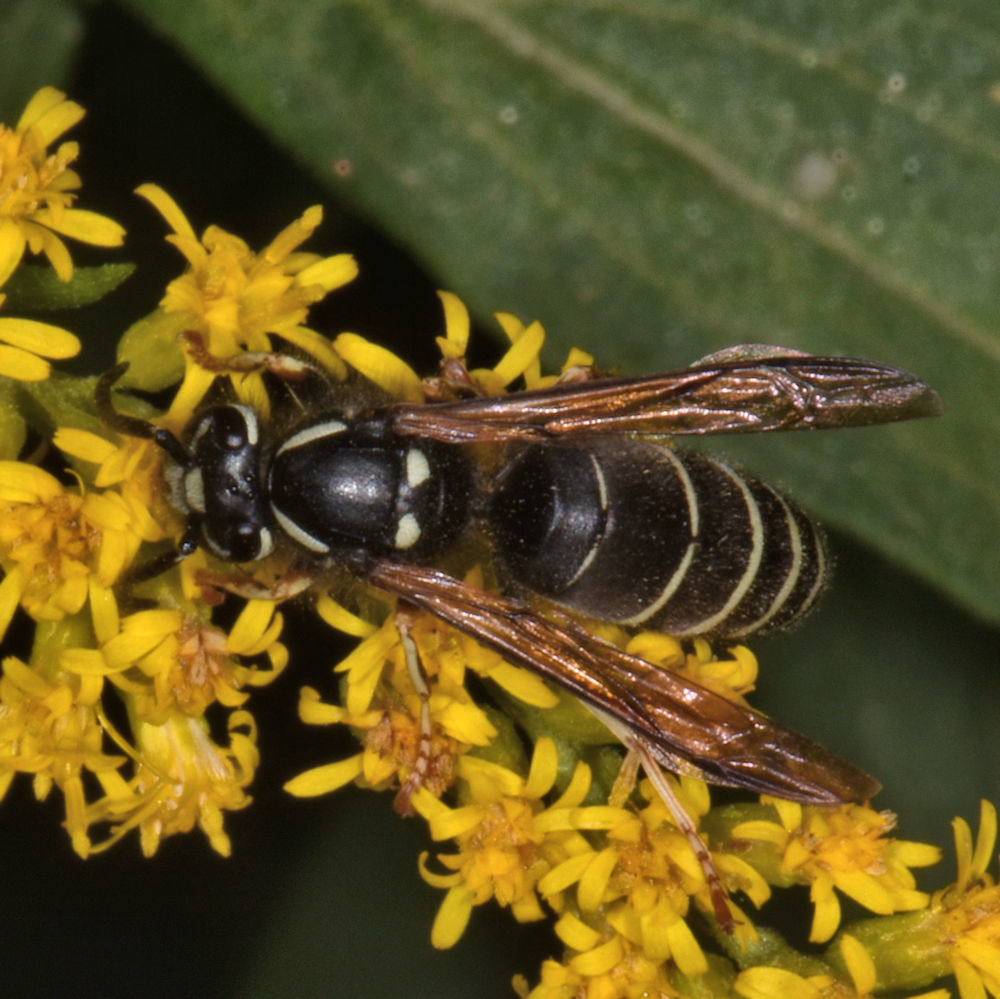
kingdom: Animalia
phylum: Arthropoda
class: Insecta
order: Hymenoptera
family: Vespidae
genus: Vespula
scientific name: Vespula consobrina
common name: Blackjacket
